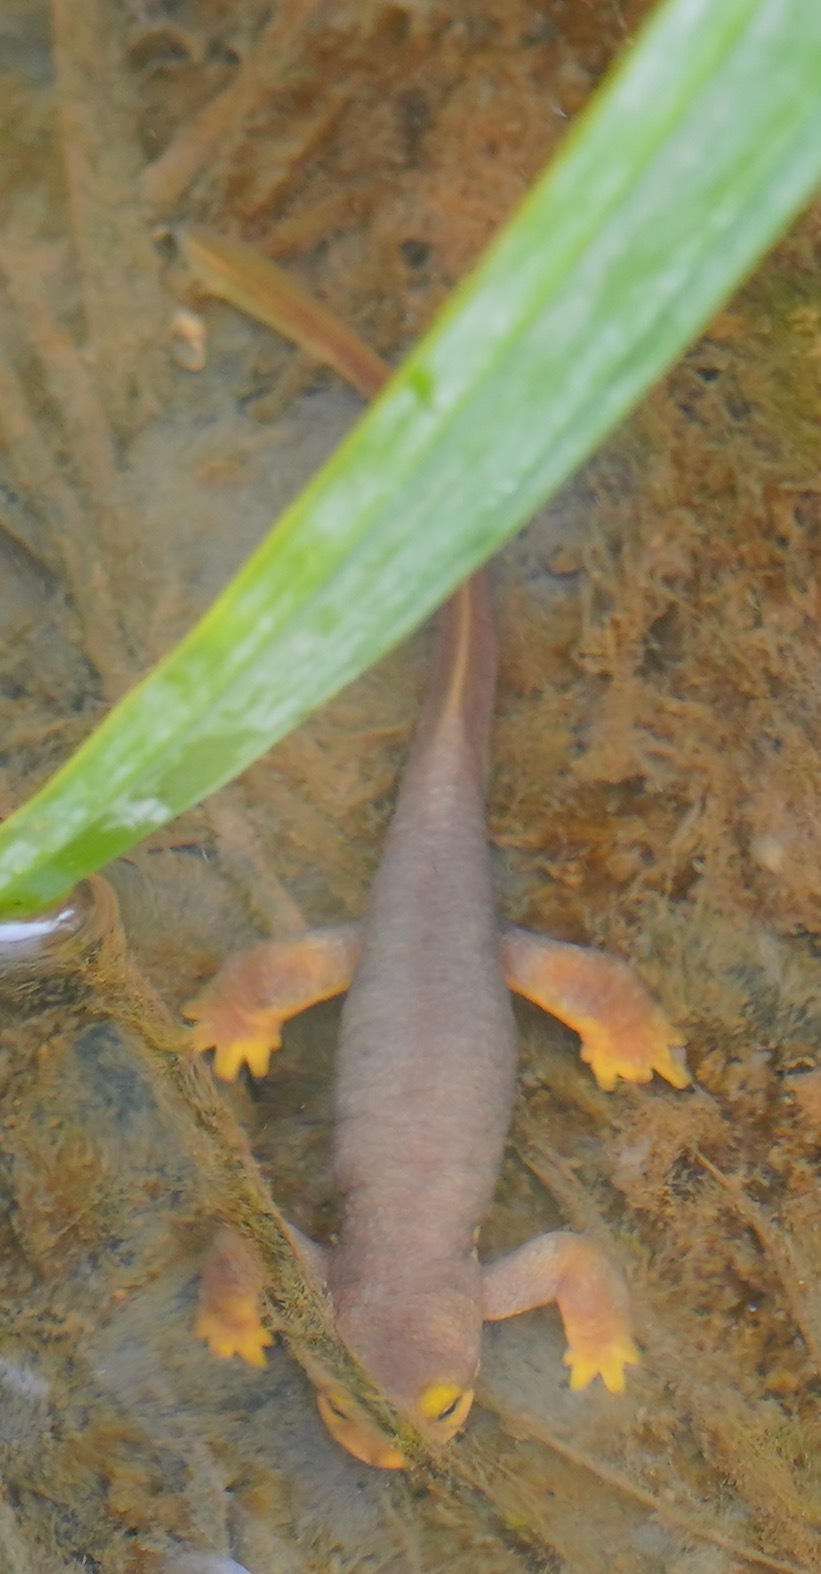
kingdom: Animalia
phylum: Chordata
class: Amphibia
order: Caudata
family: Salamandridae
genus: Taricha
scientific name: Taricha torosa
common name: California newt
